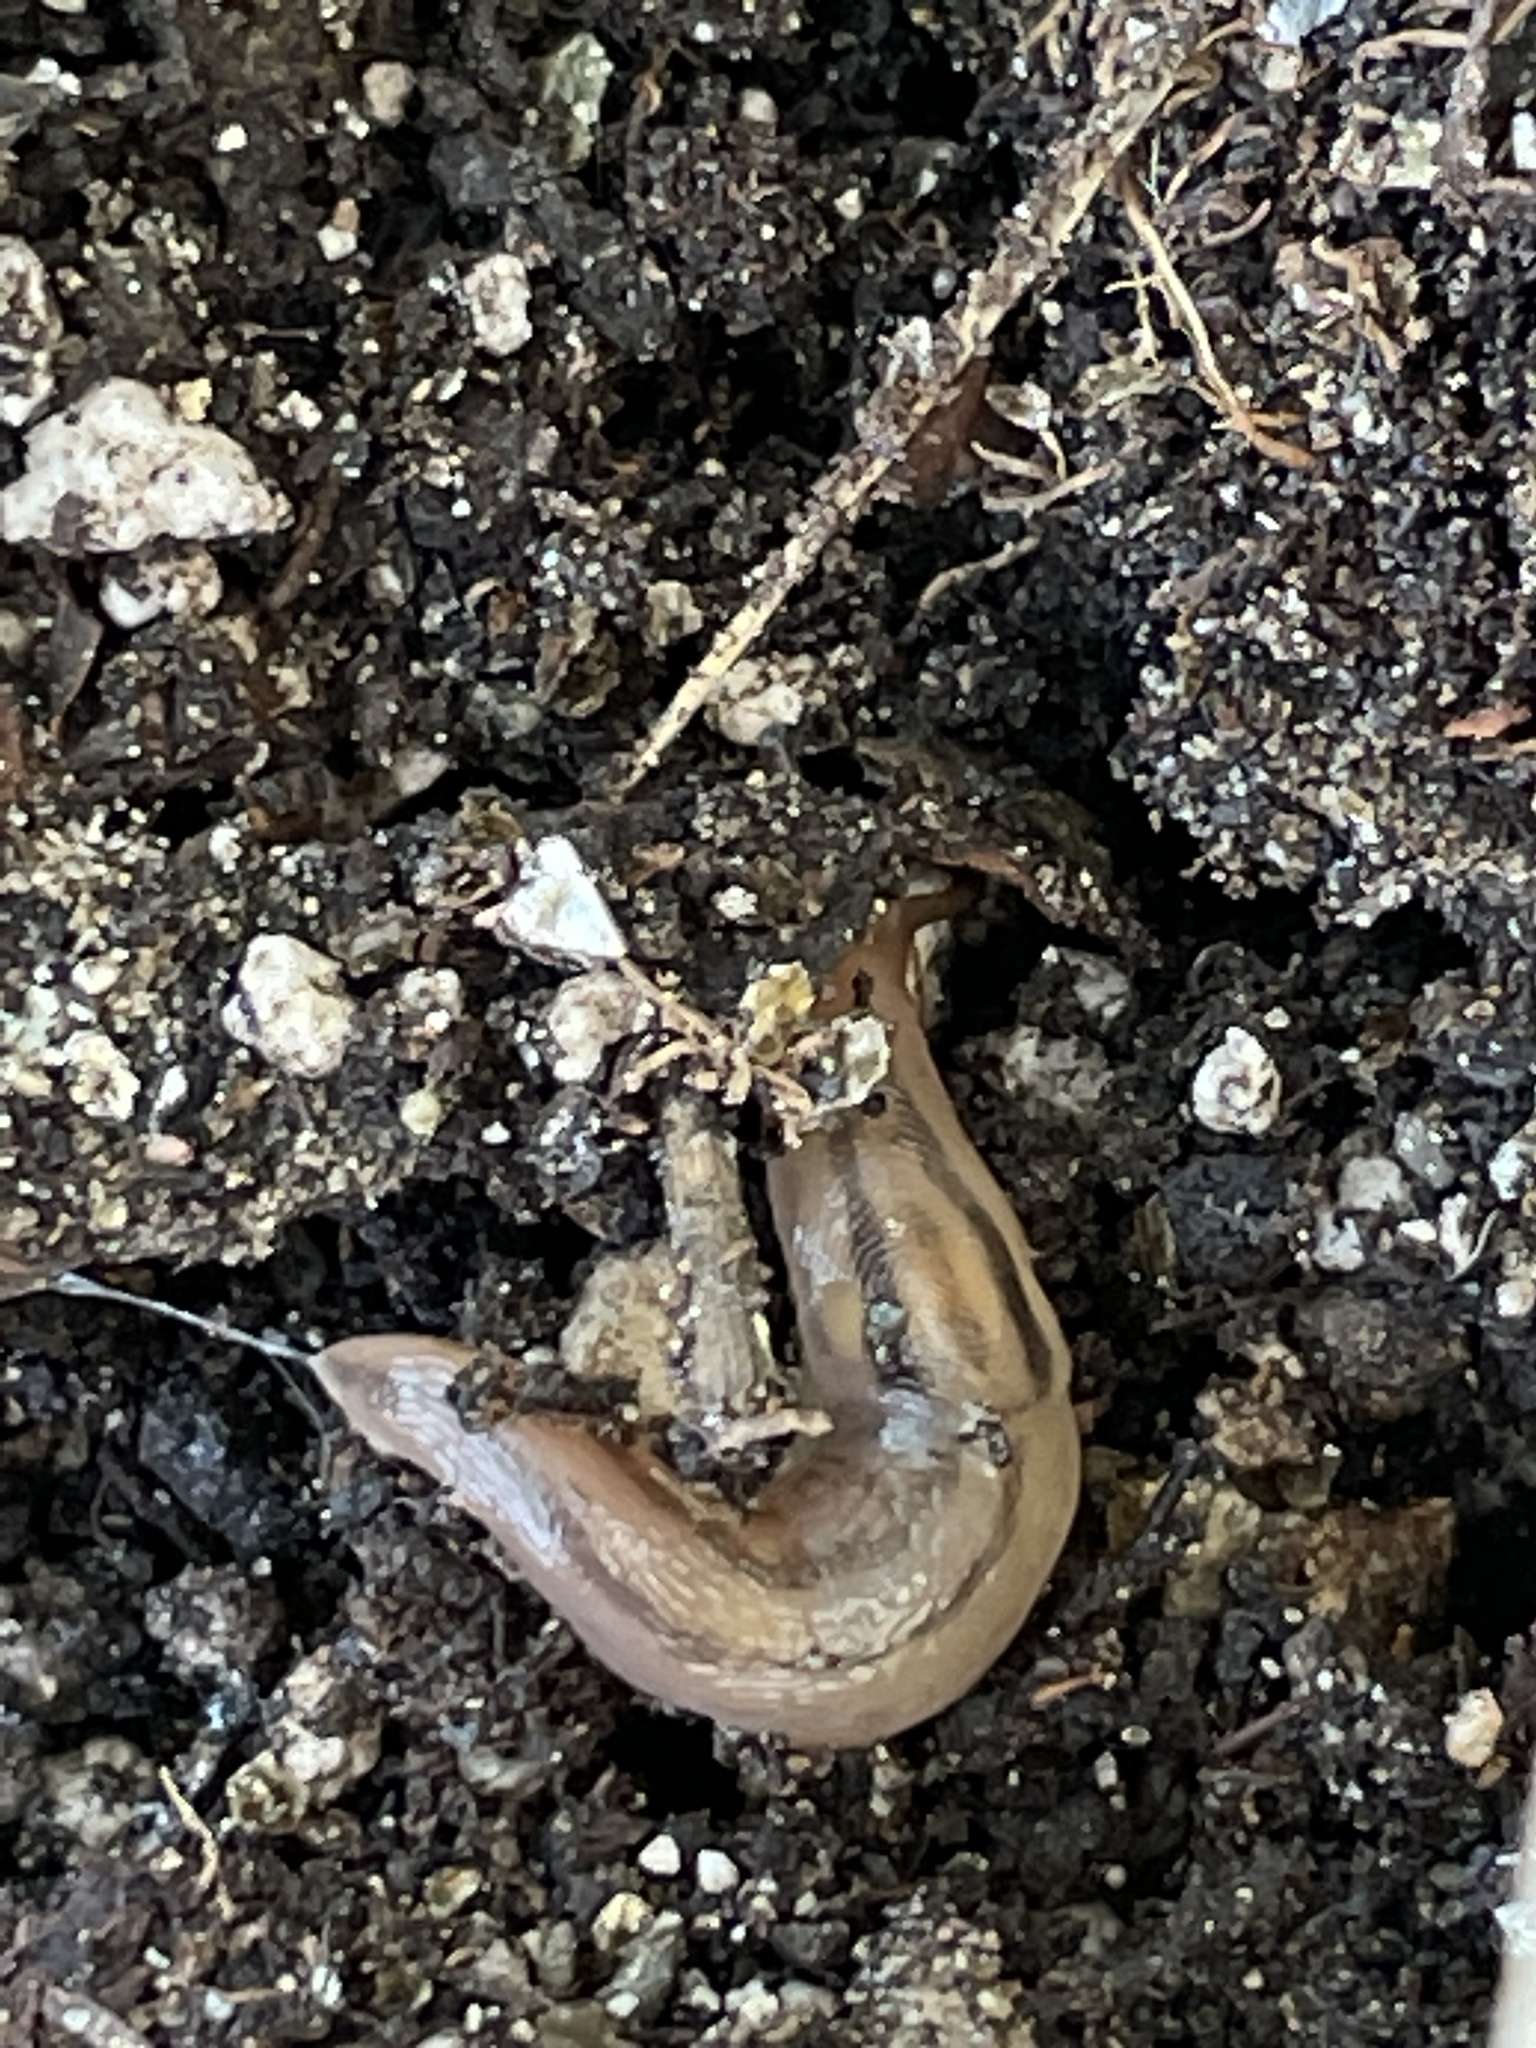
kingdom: Animalia
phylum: Mollusca
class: Gastropoda
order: Stylommatophora
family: Limacidae
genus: Ambigolimax
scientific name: Ambigolimax
